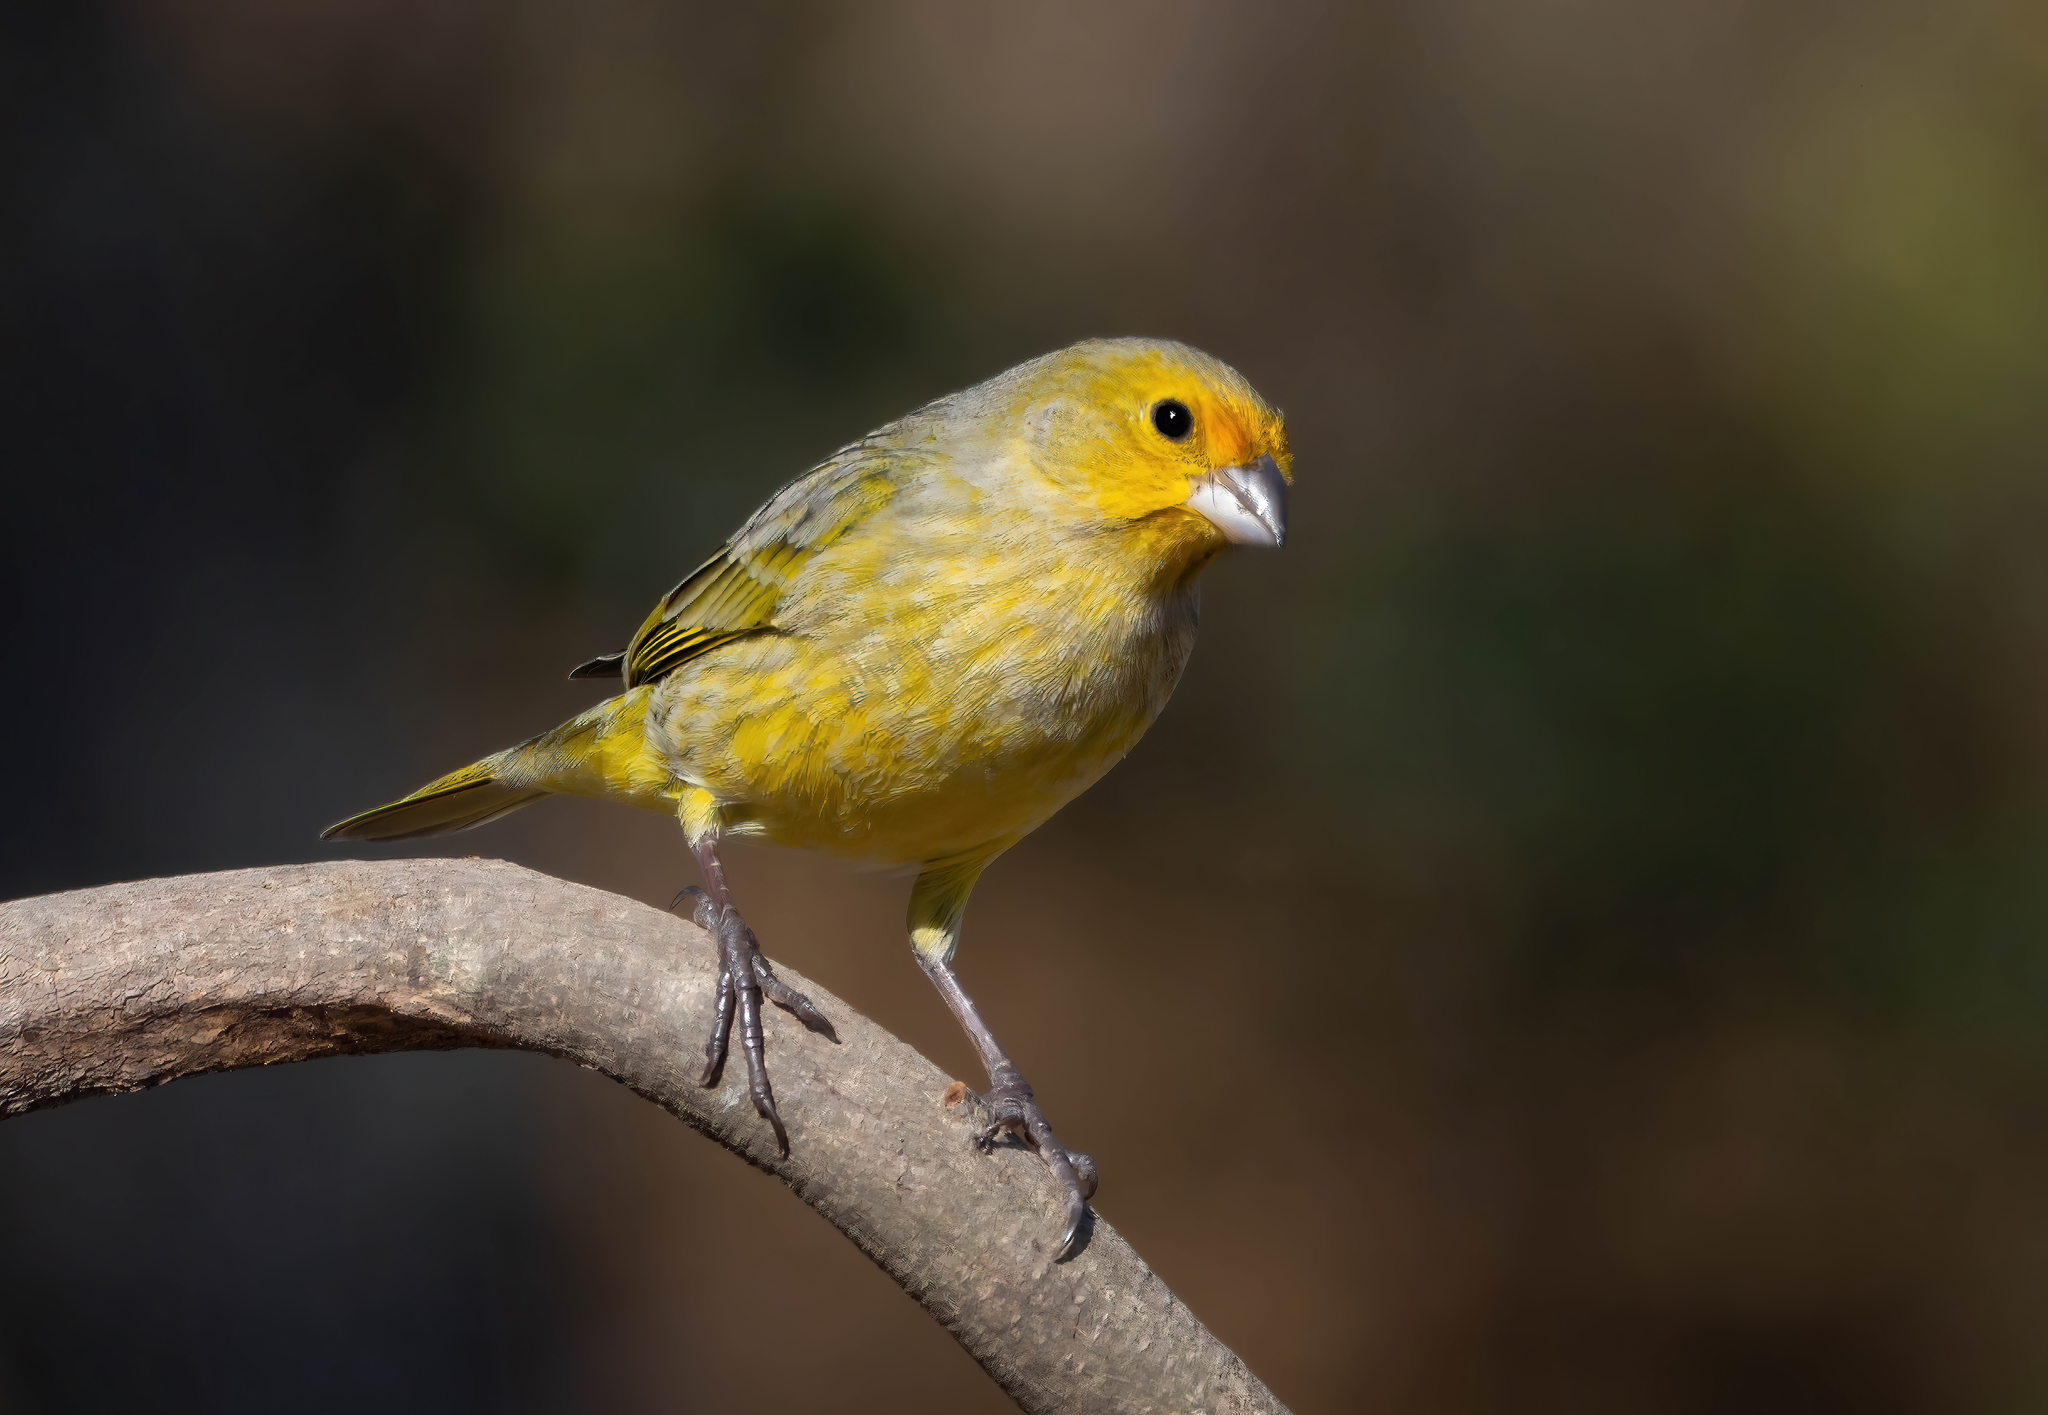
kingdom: Animalia
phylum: Chordata
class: Aves
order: Passeriformes
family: Thraupidae
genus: Sicalis
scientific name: Sicalis flaveola
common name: Saffron finch
